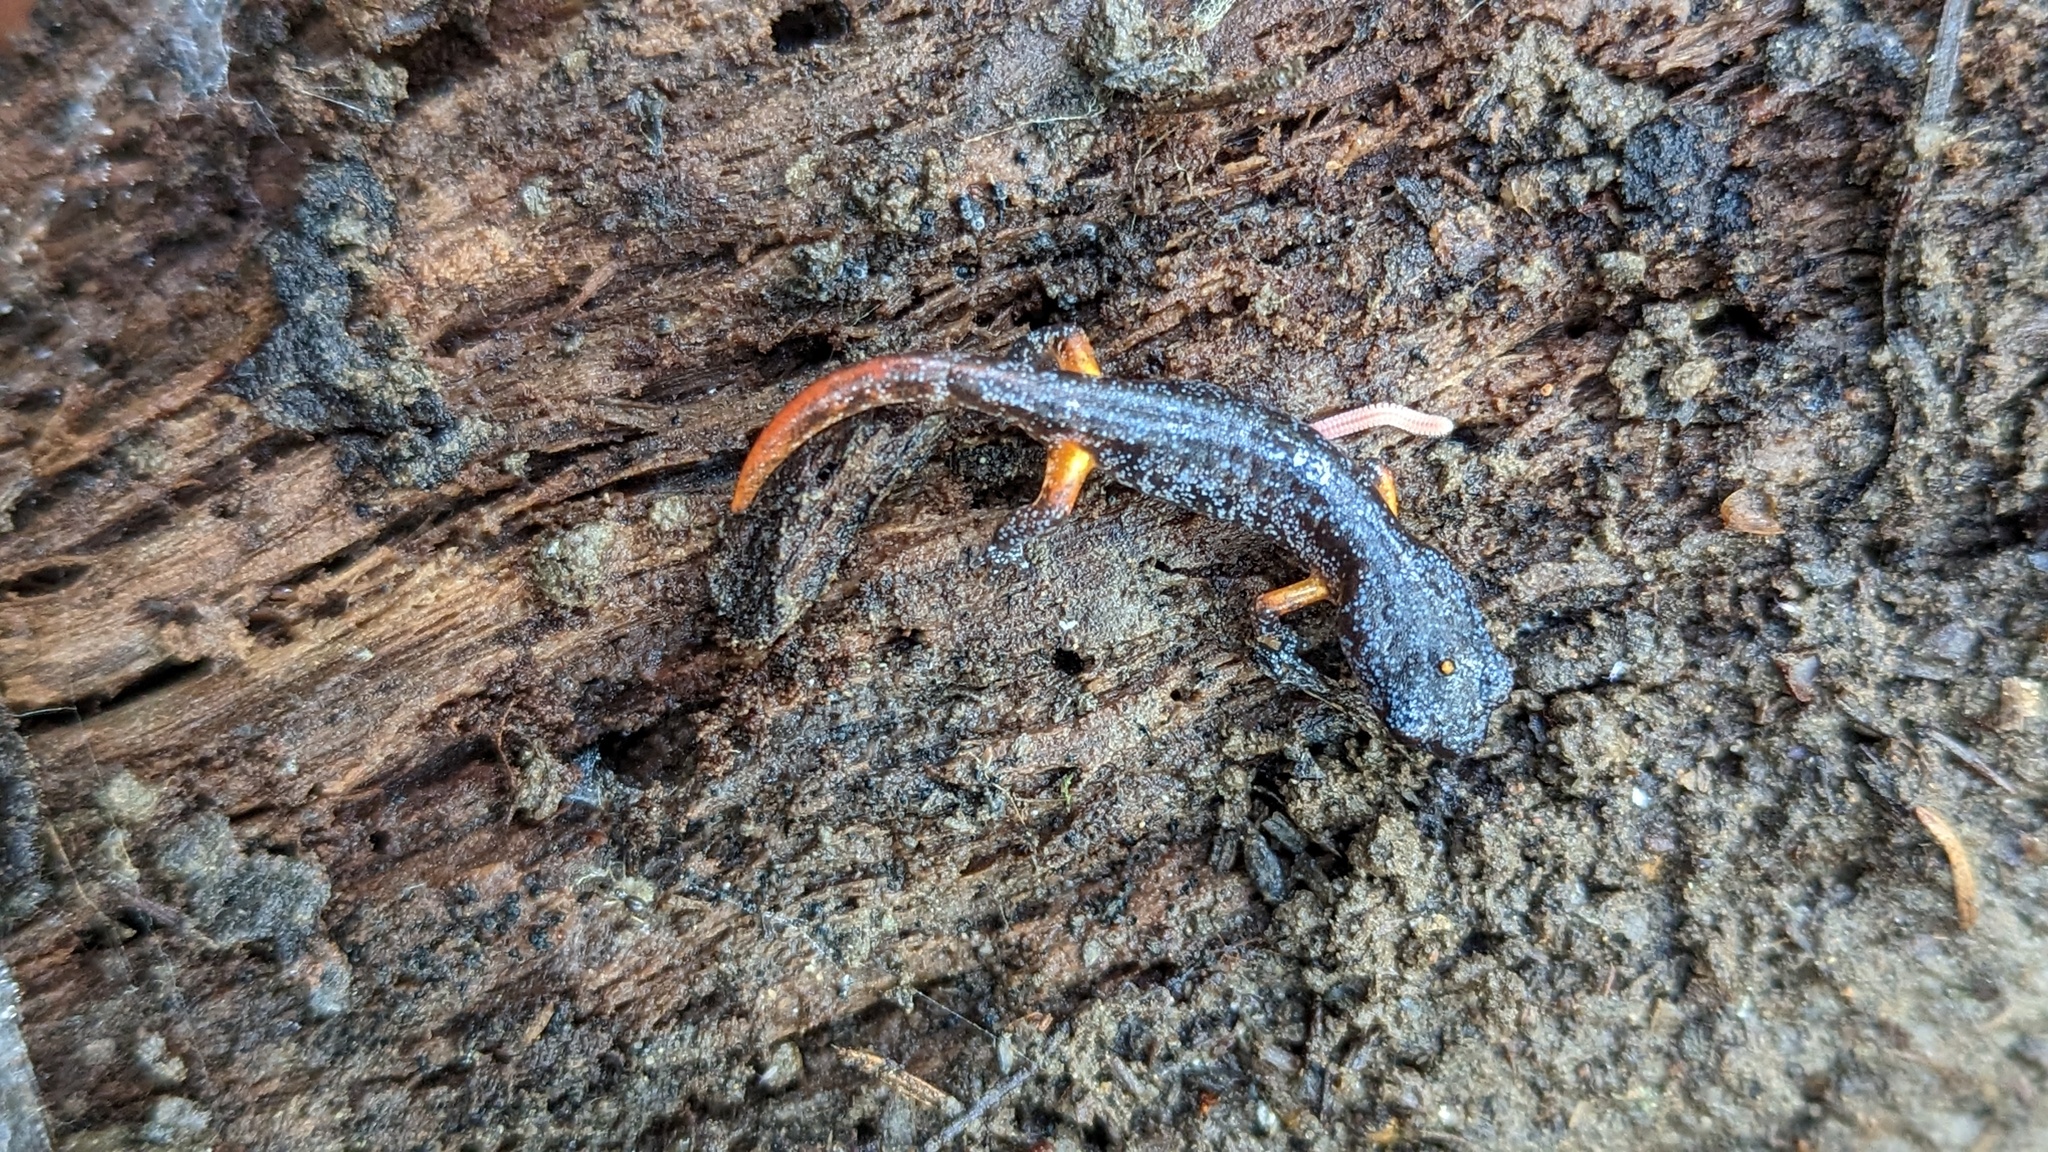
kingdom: Animalia
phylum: Chordata
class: Amphibia
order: Caudata
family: Plethodontidae
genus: Ensatina
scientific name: Ensatina eschscholtzii
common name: Ensatina
